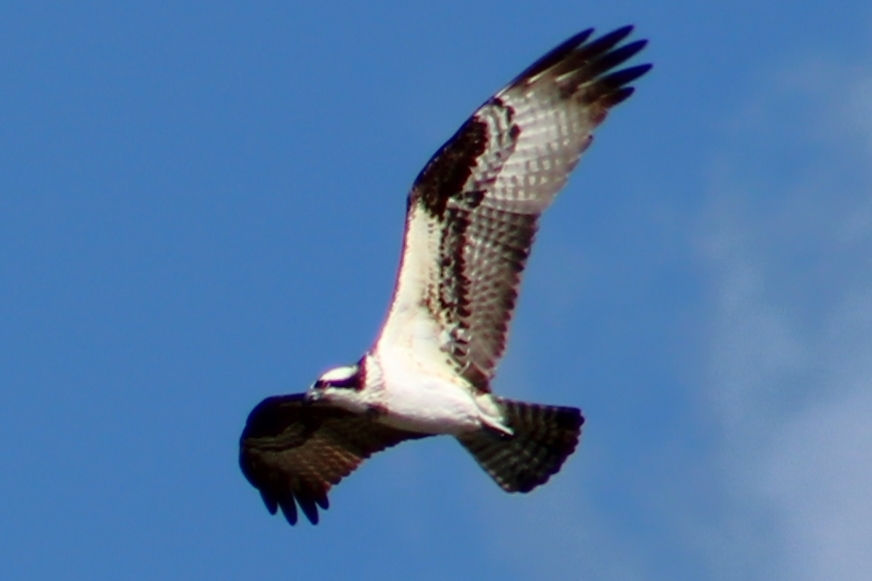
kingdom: Animalia
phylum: Chordata
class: Aves
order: Accipitriformes
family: Pandionidae
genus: Pandion
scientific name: Pandion haliaetus
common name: Osprey
